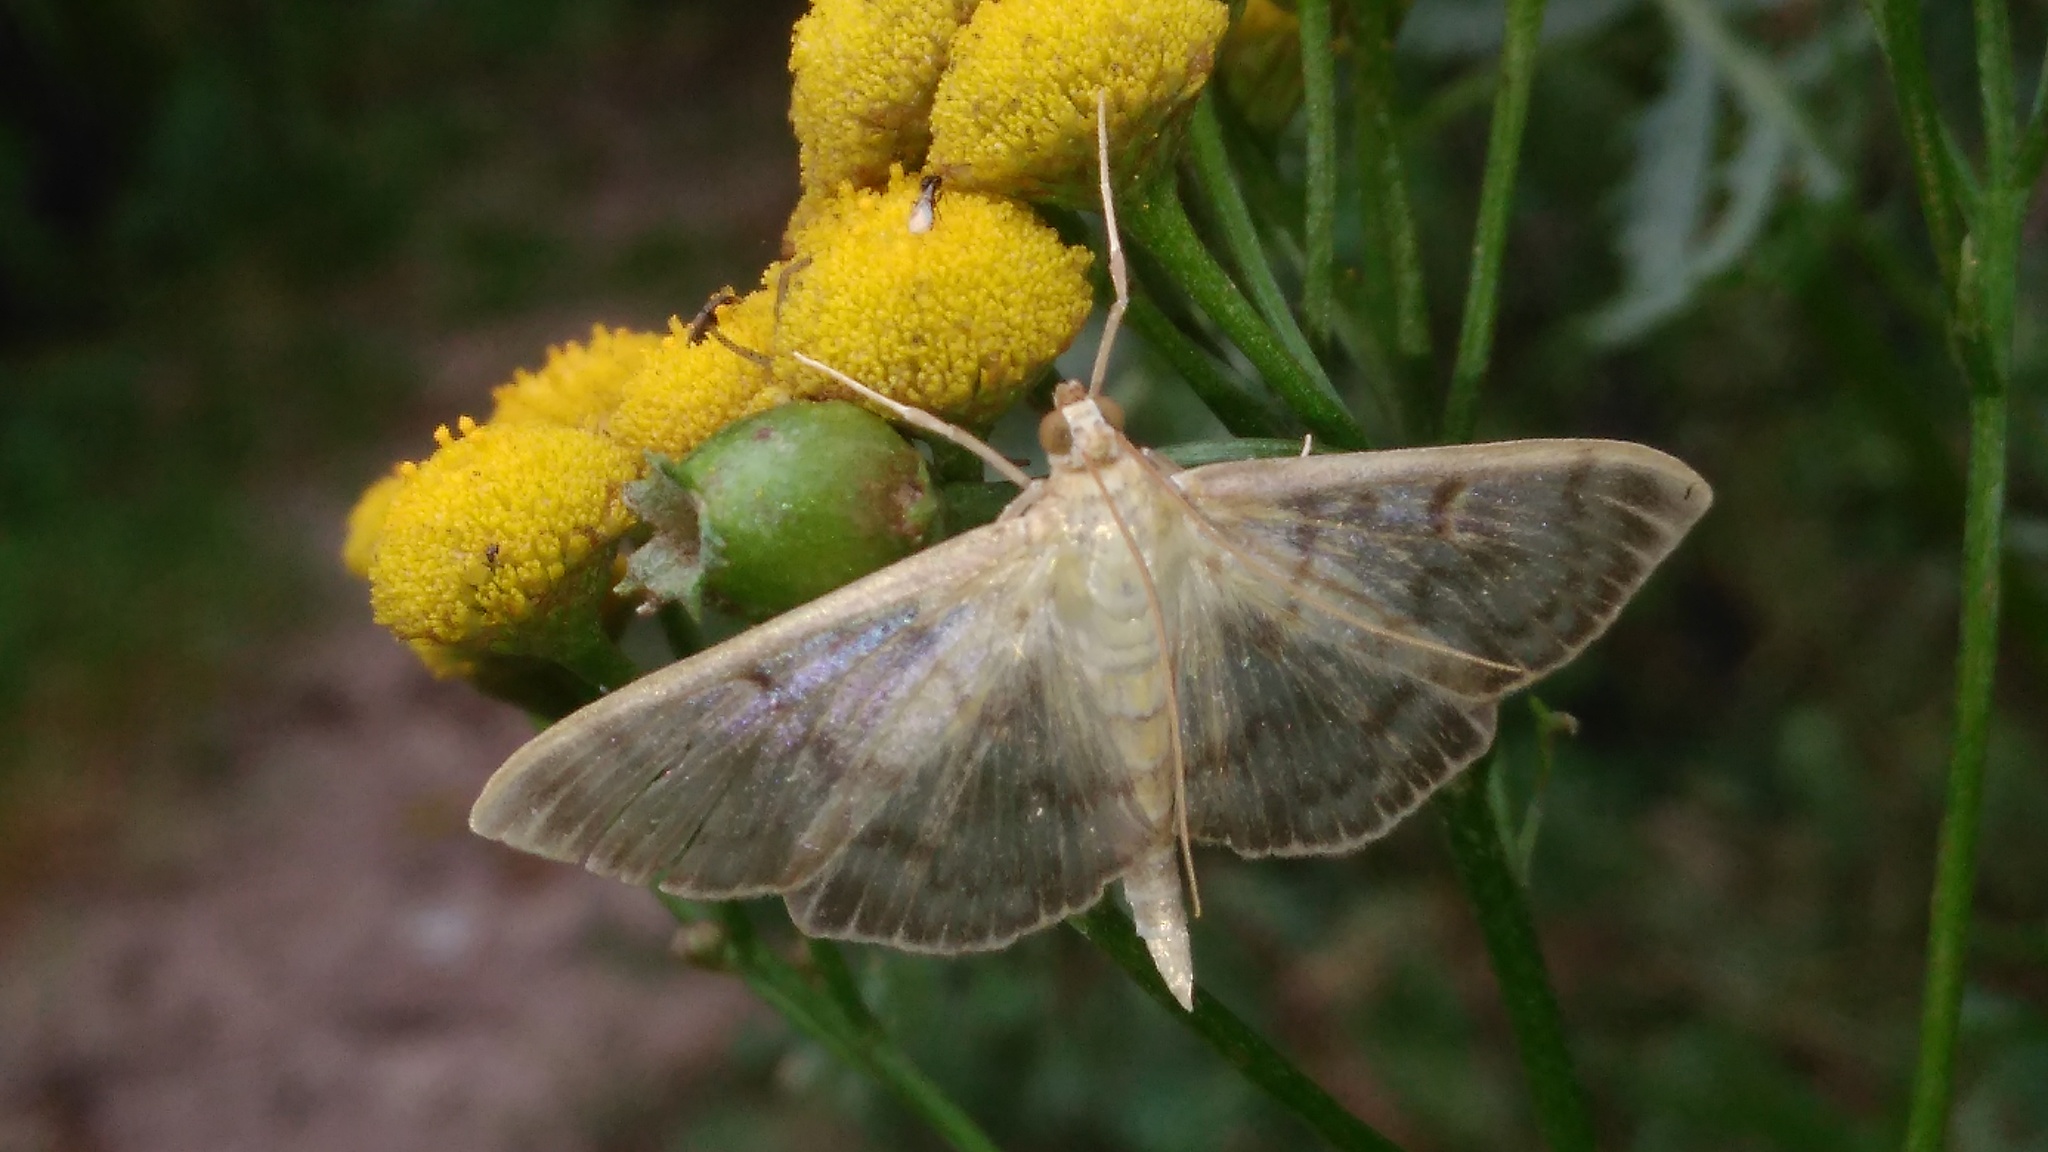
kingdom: Animalia
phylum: Arthropoda
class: Insecta
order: Lepidoptera
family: Crambidae
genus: Patania
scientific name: Patania ruralis
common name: Mother of pearl
